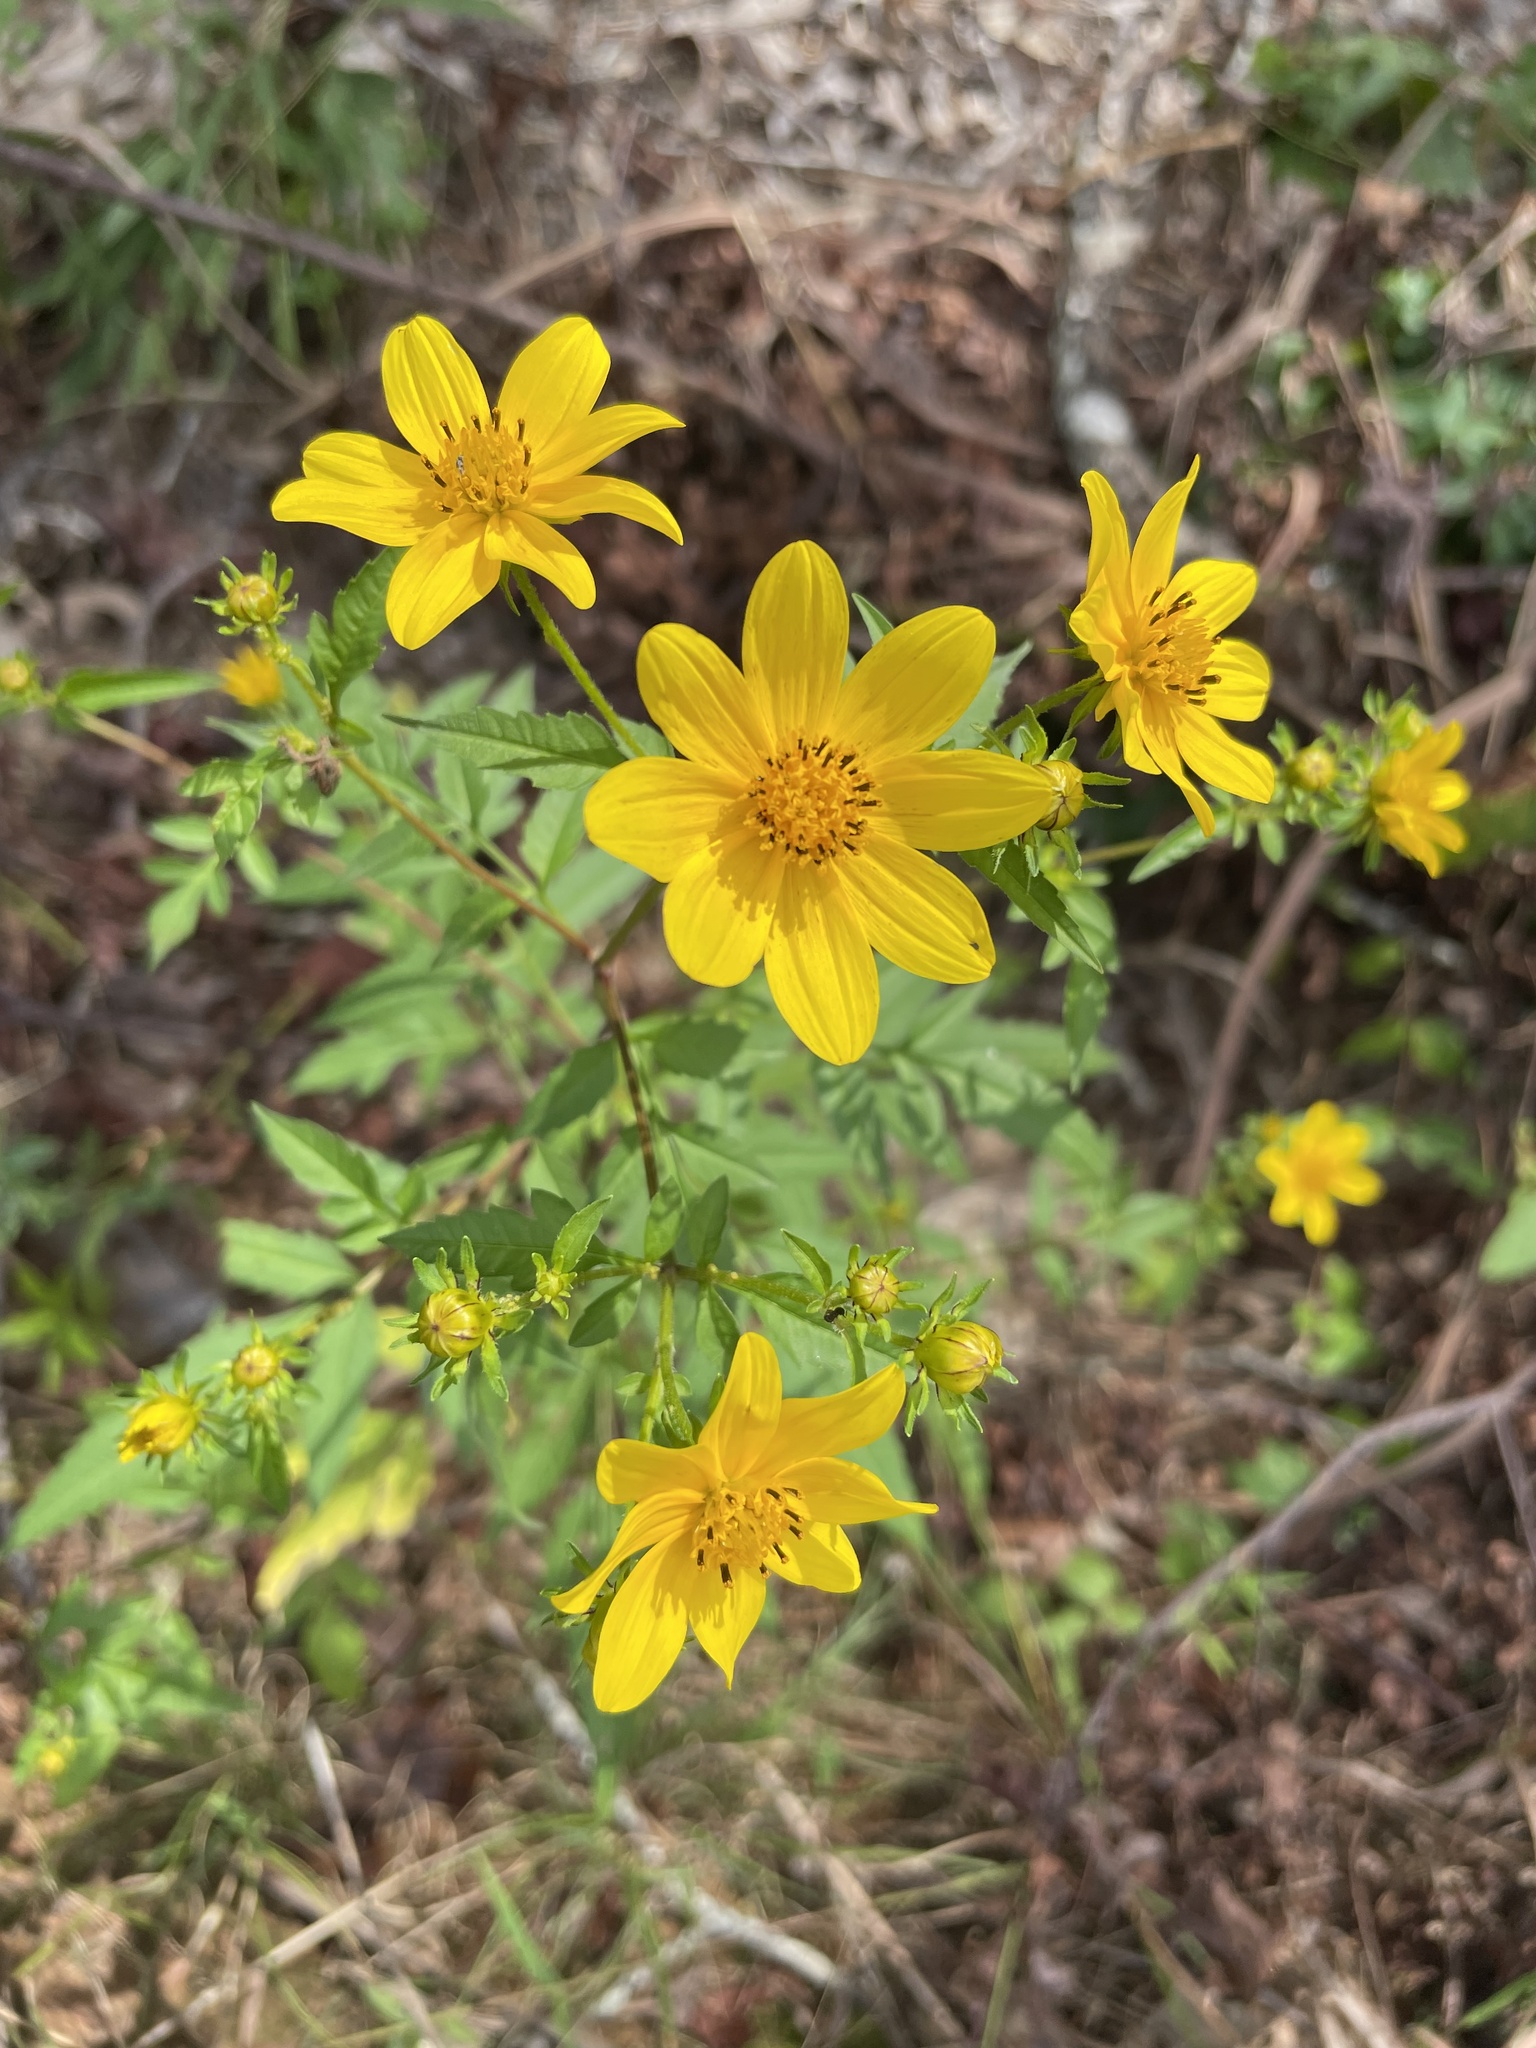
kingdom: Plantae
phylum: Tracheophyta
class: Magnoliopsida
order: Asterales
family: Asteraceae
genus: Bidens
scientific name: Bidens polylepis
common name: Awnless beggarticks
